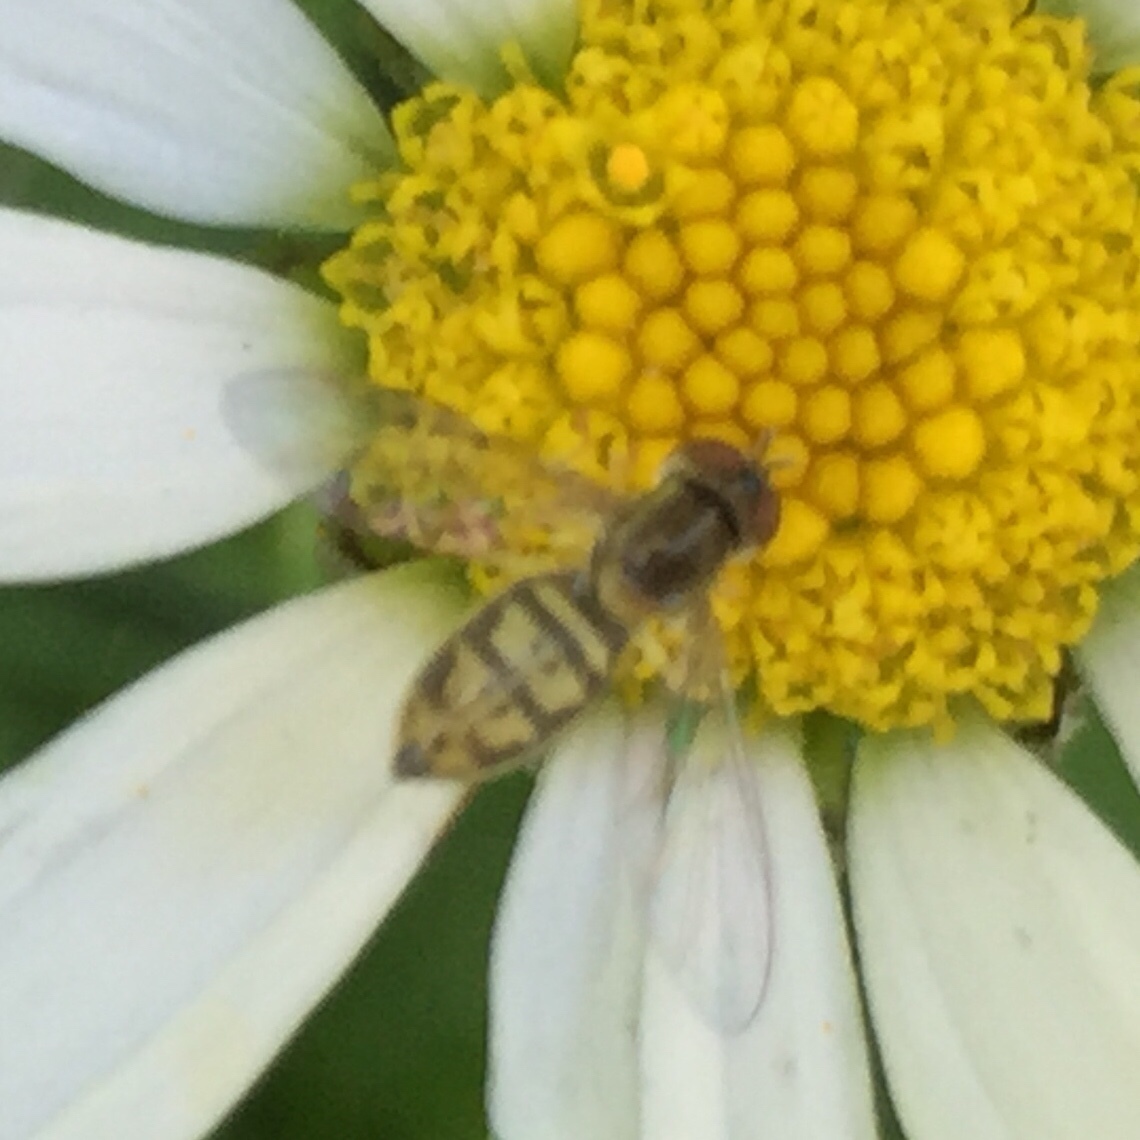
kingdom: Animalia
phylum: Arthropoda
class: Insecta
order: Diptera
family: Syrphidae
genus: Toxomerus
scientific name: Toxomerus marginatus
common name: Syrphid fly
